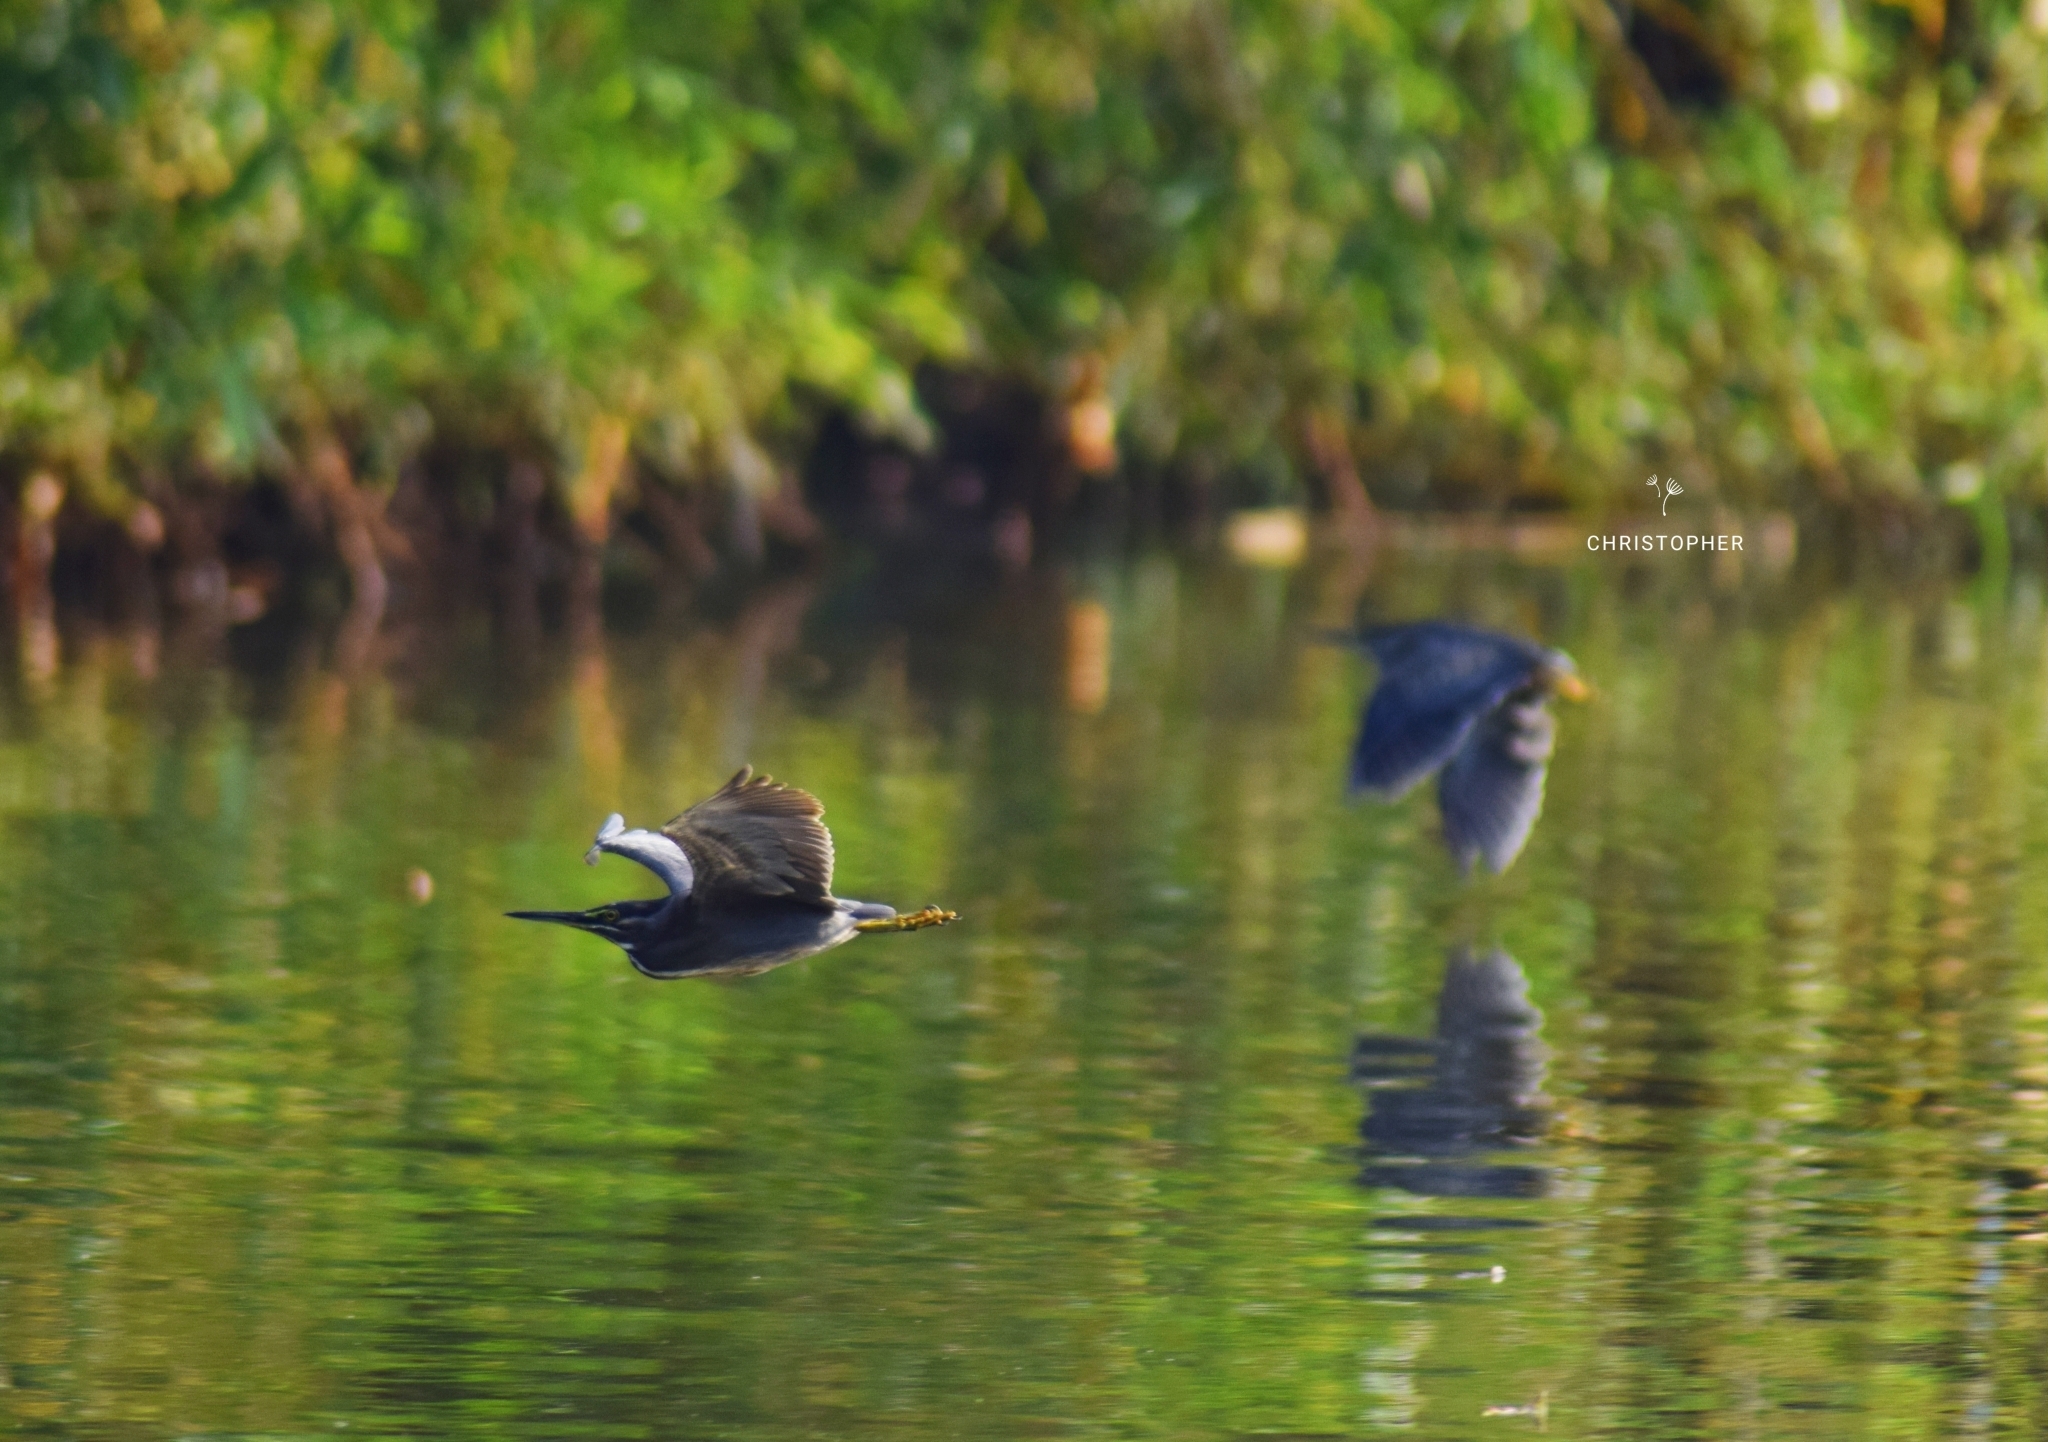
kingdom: Animalia
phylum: Chordata
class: Aves
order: Pelecaniformes
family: Ardeidae
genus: Butorides
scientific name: Butorides striata
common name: Striated heron
